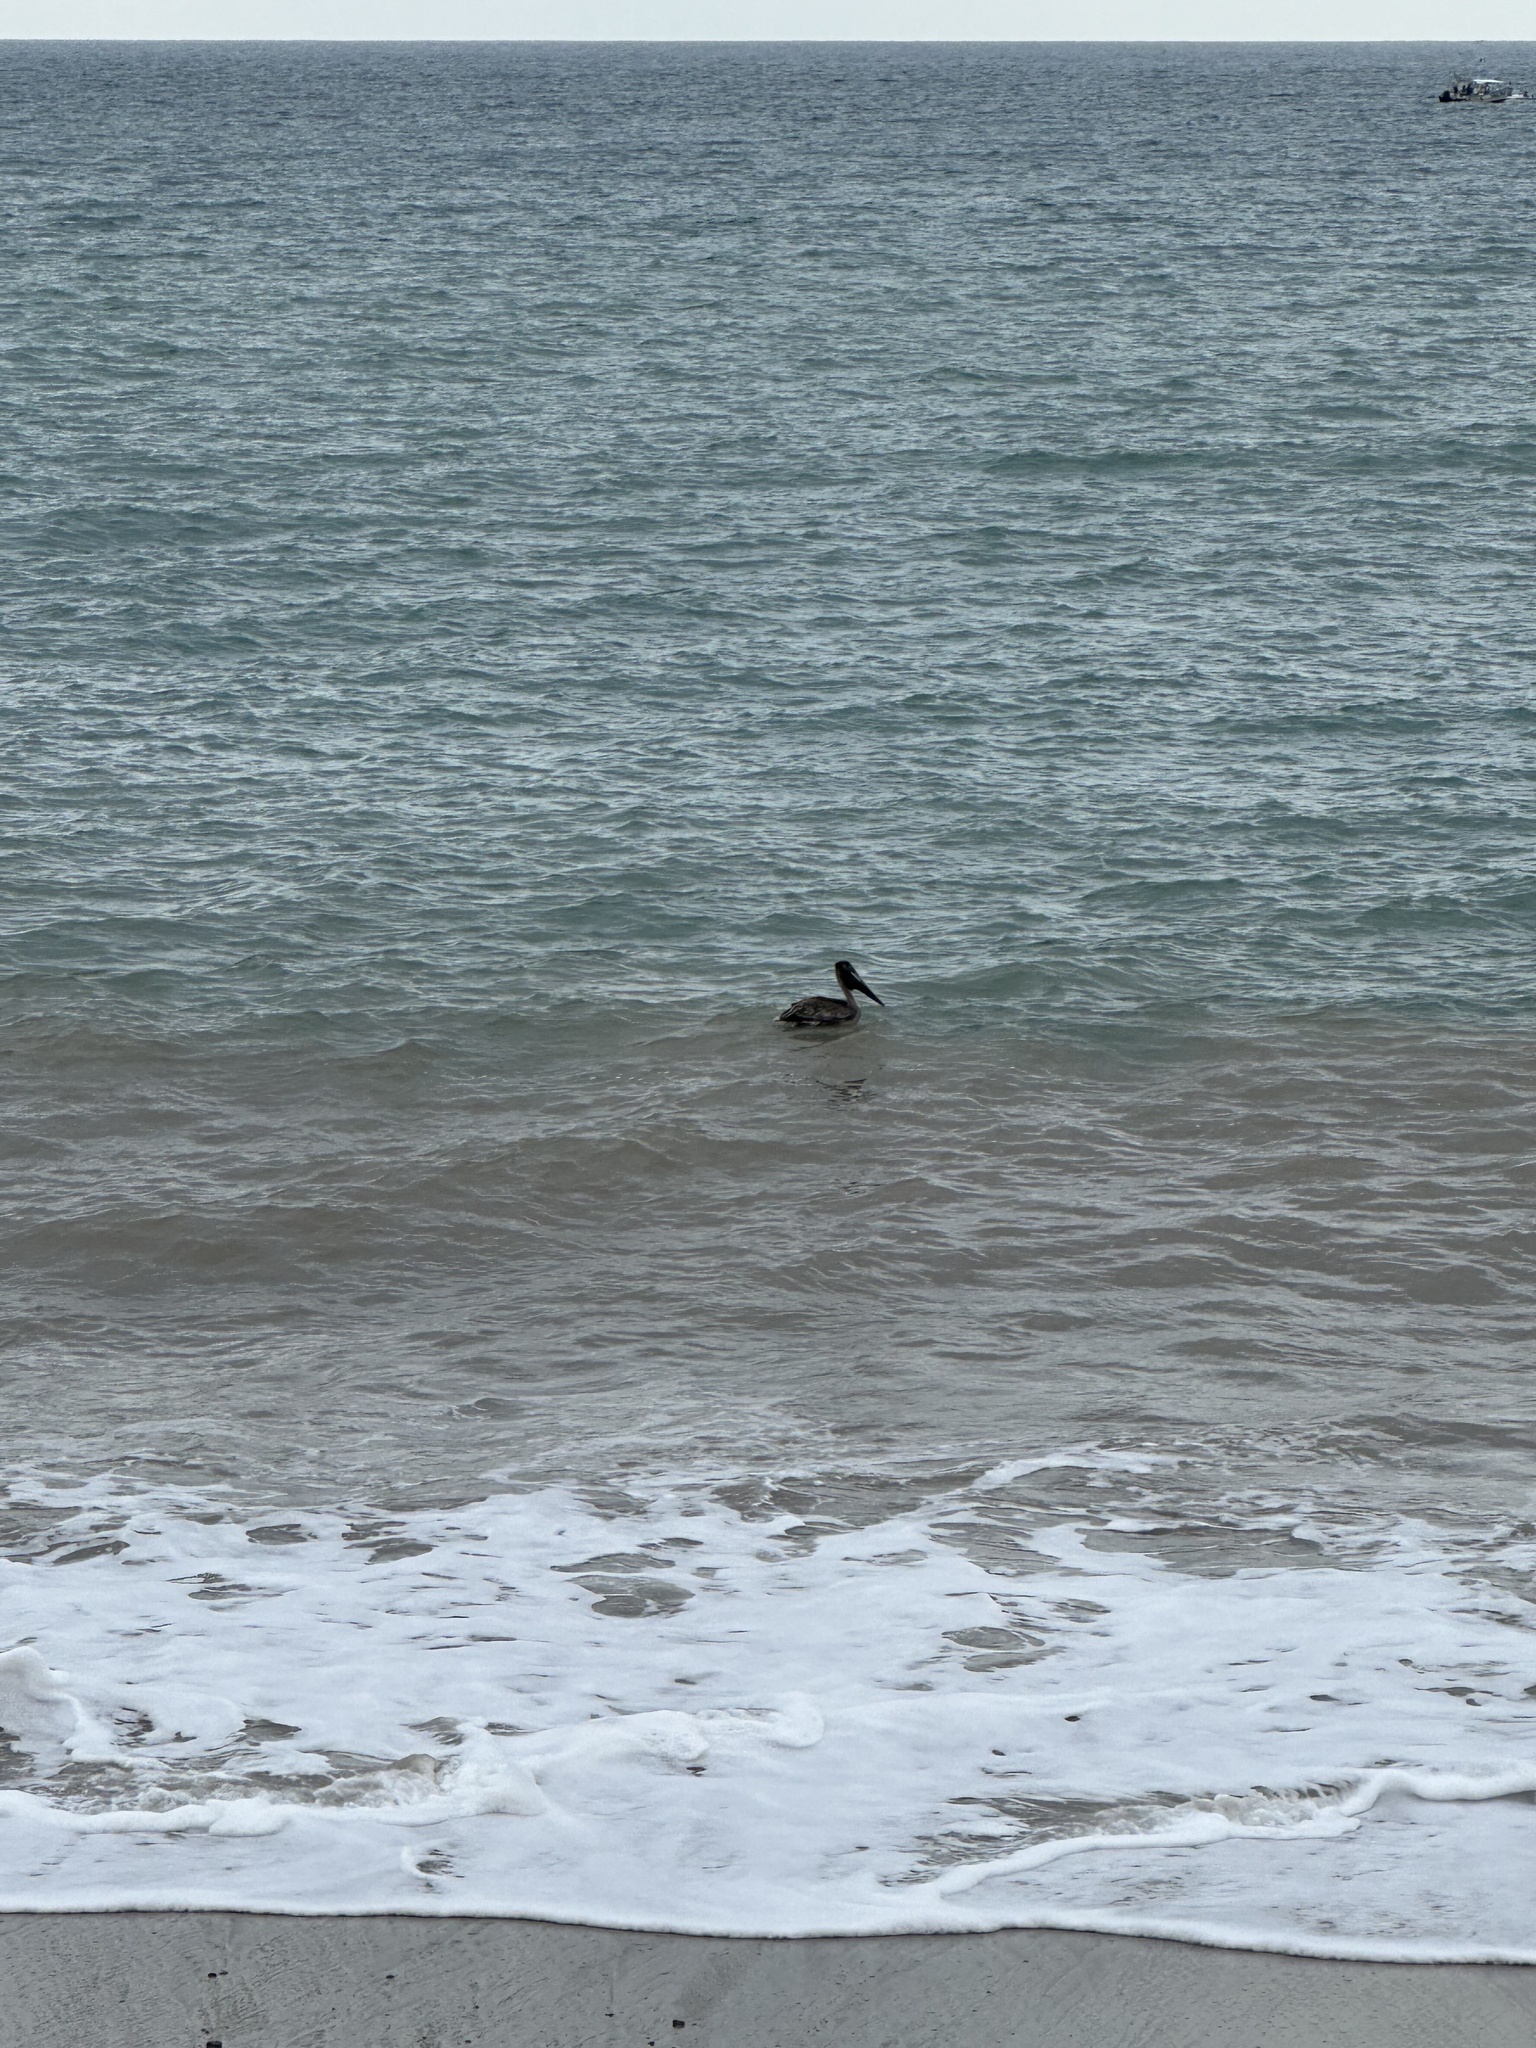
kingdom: Animalia
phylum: Chordata
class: Aves
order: Pelecaniformes
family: Pelecanidae
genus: Pelecanus
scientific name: Pelecanus occidentalis
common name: Brown pelican
